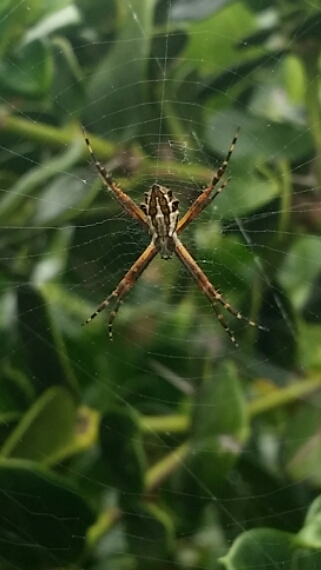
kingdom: Animalia
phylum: Arthropoda
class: Arachnida
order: Araneae
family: Araneidae
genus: Argiope
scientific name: Argiope argentata
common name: Orb weavers
